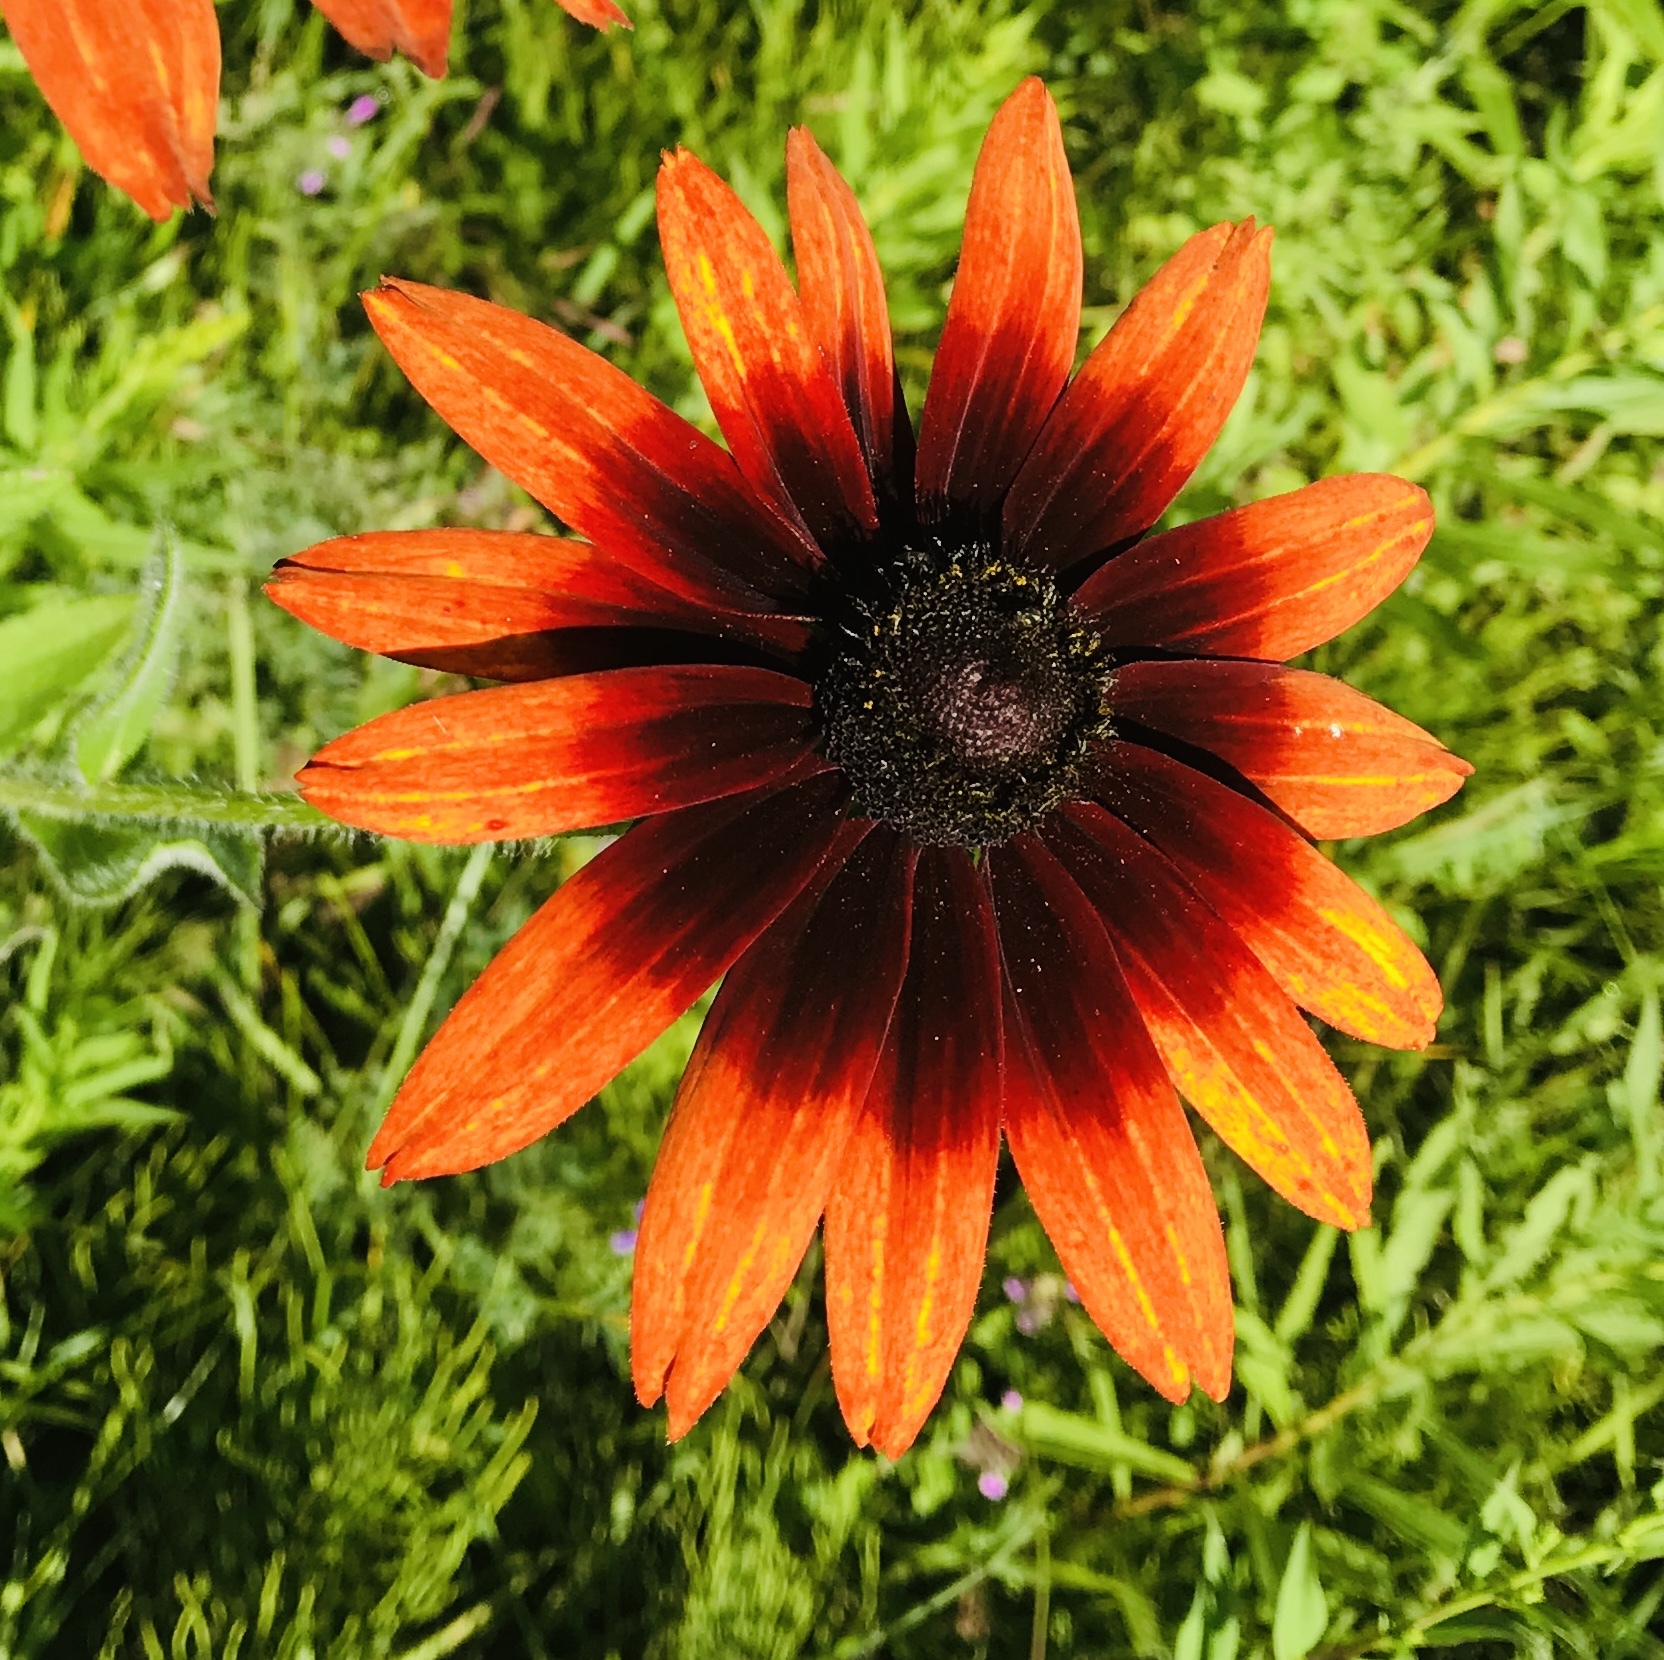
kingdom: Plantae
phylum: Tracheophyta
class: Magnoliopsida
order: Asterales
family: Asteraceae
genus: Rudbeckia
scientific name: Rudbeckia hirta
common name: Black-eyed-susan
